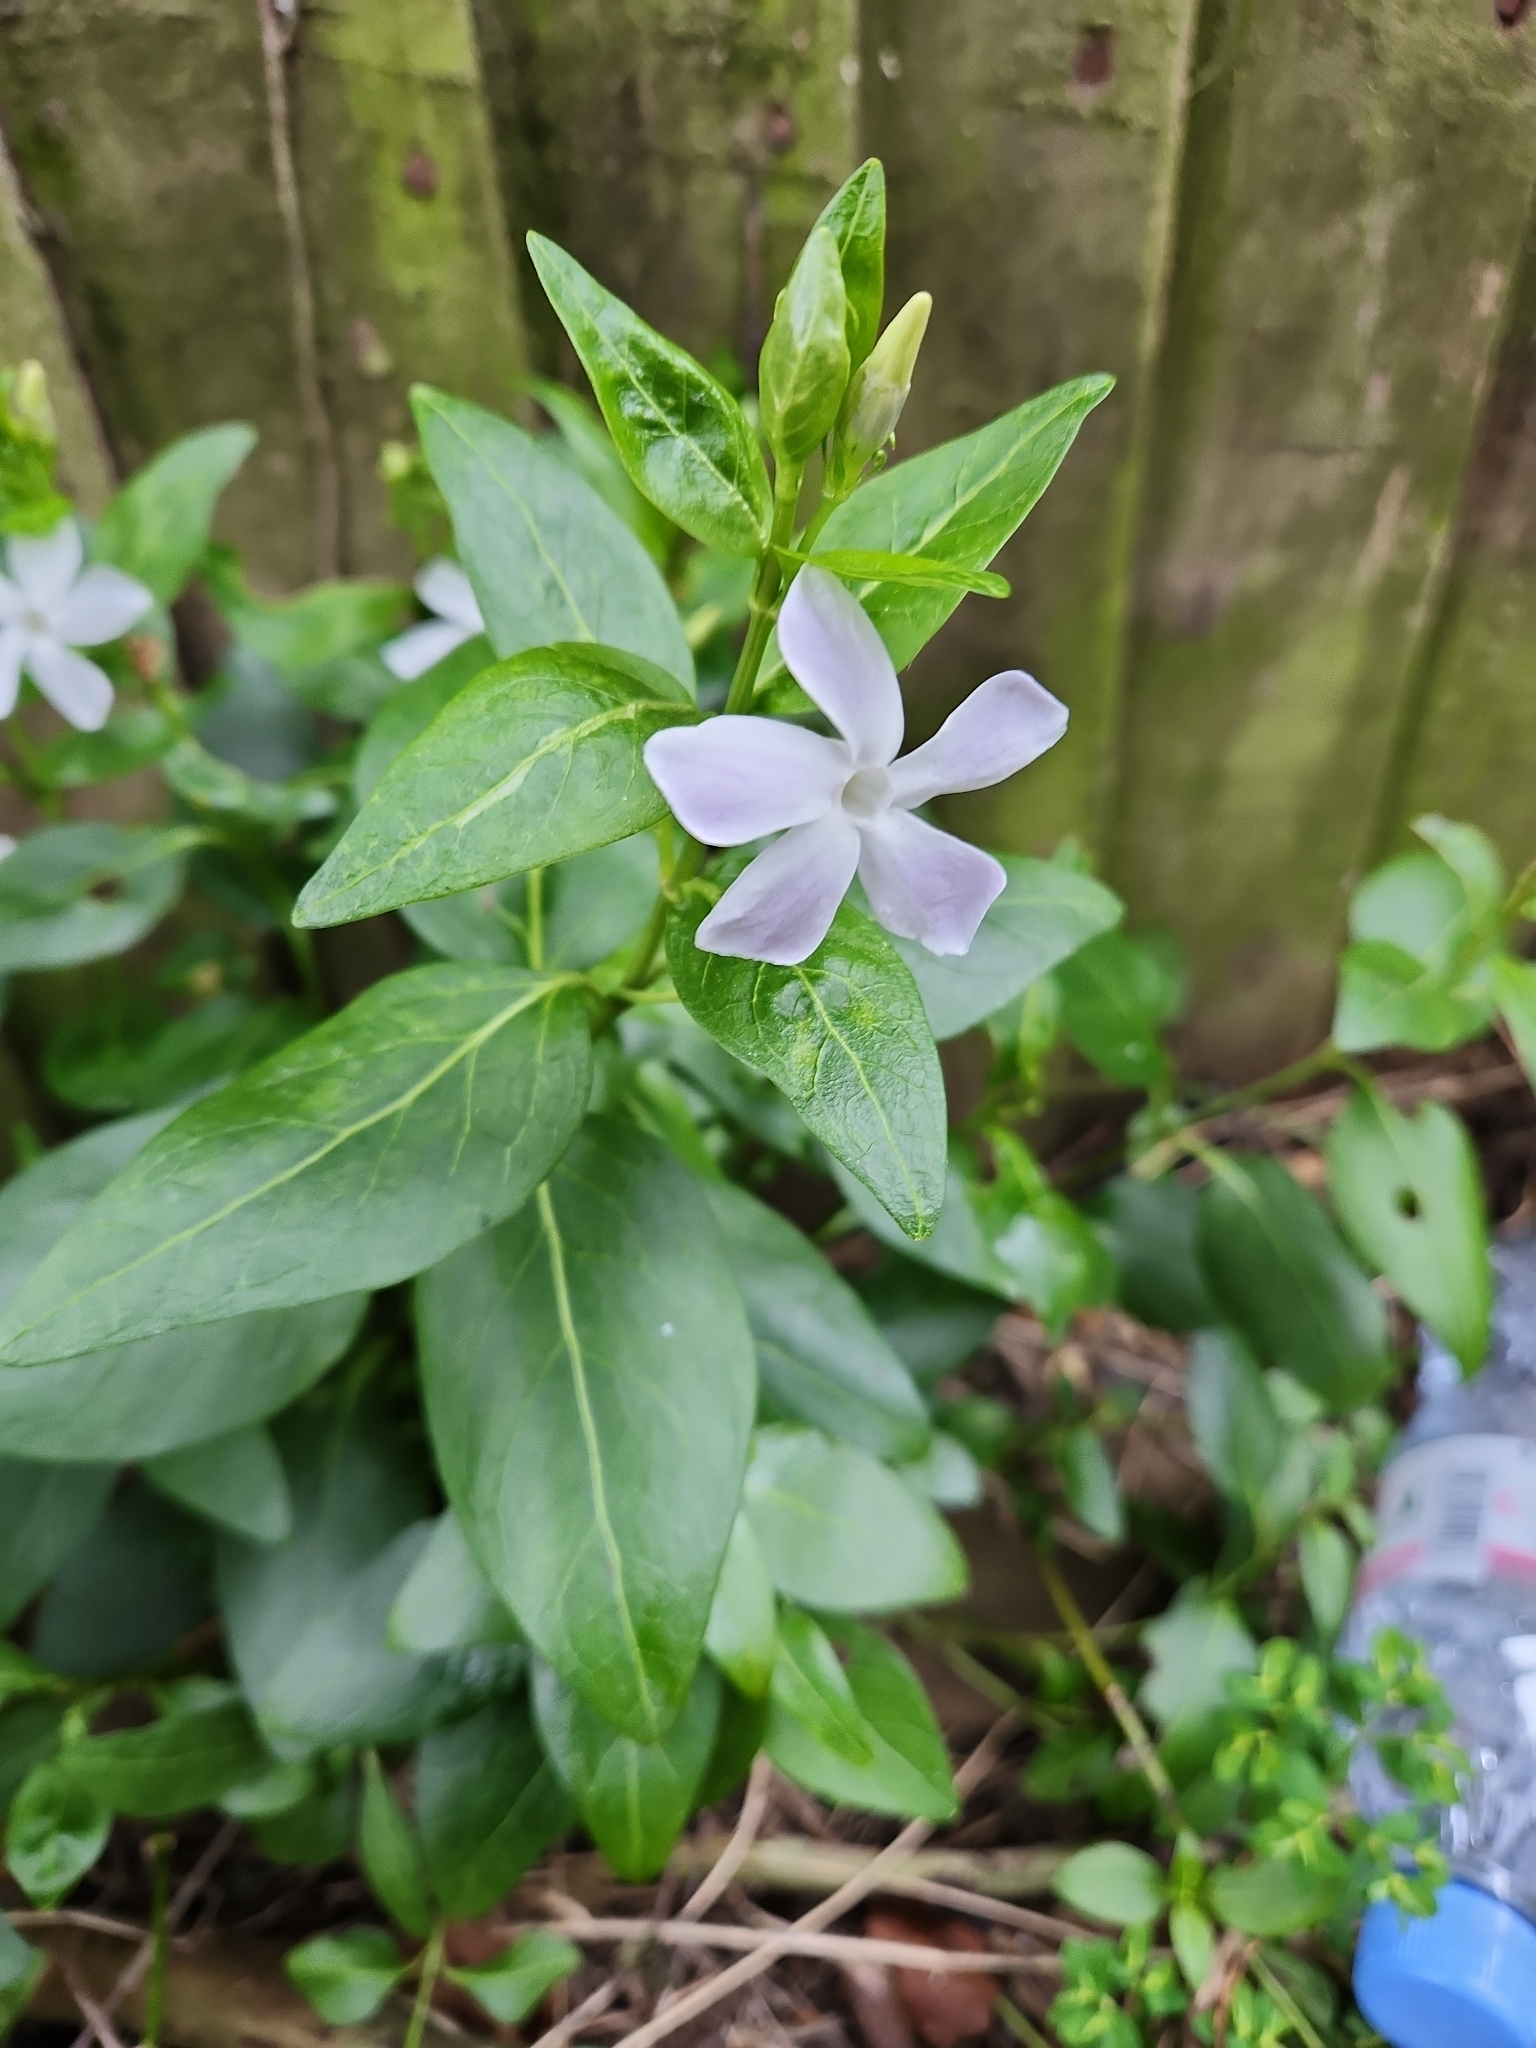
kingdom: Plantae
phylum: Tracheophyta
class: Magnoliopsida
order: Gentianales
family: Apocynaceae
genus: Vinca
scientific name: Vinca difformis
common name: Intermediate periwinkle
